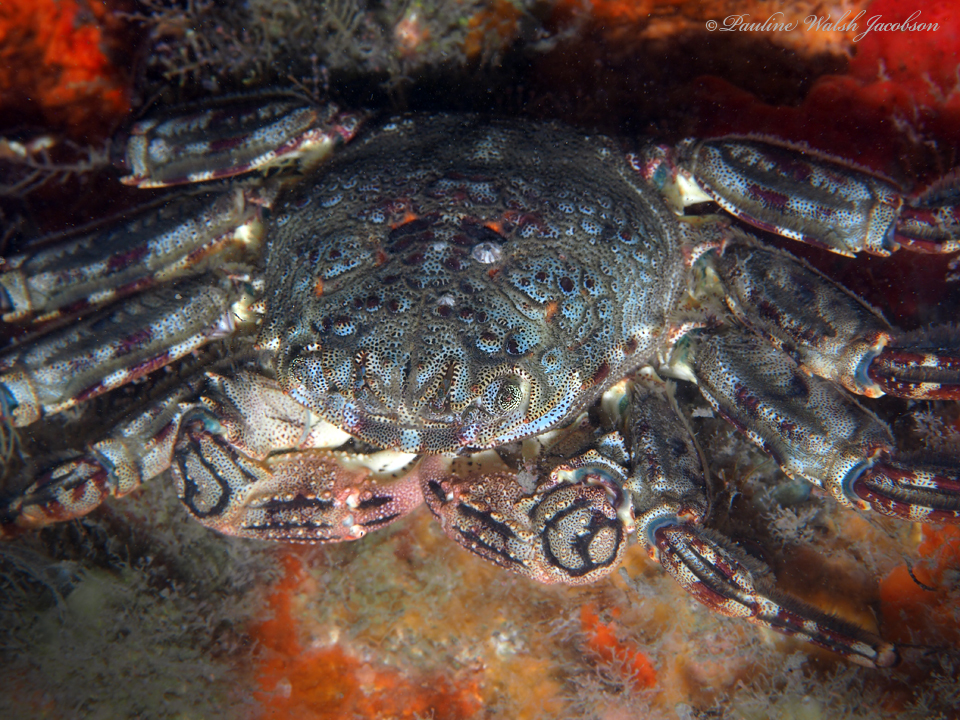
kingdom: Animalia
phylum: Arthropoda
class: Malacostraca
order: Decapoda
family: Plagusiidae
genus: Plagusia
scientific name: Plagusia depressa
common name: Flattened crab
